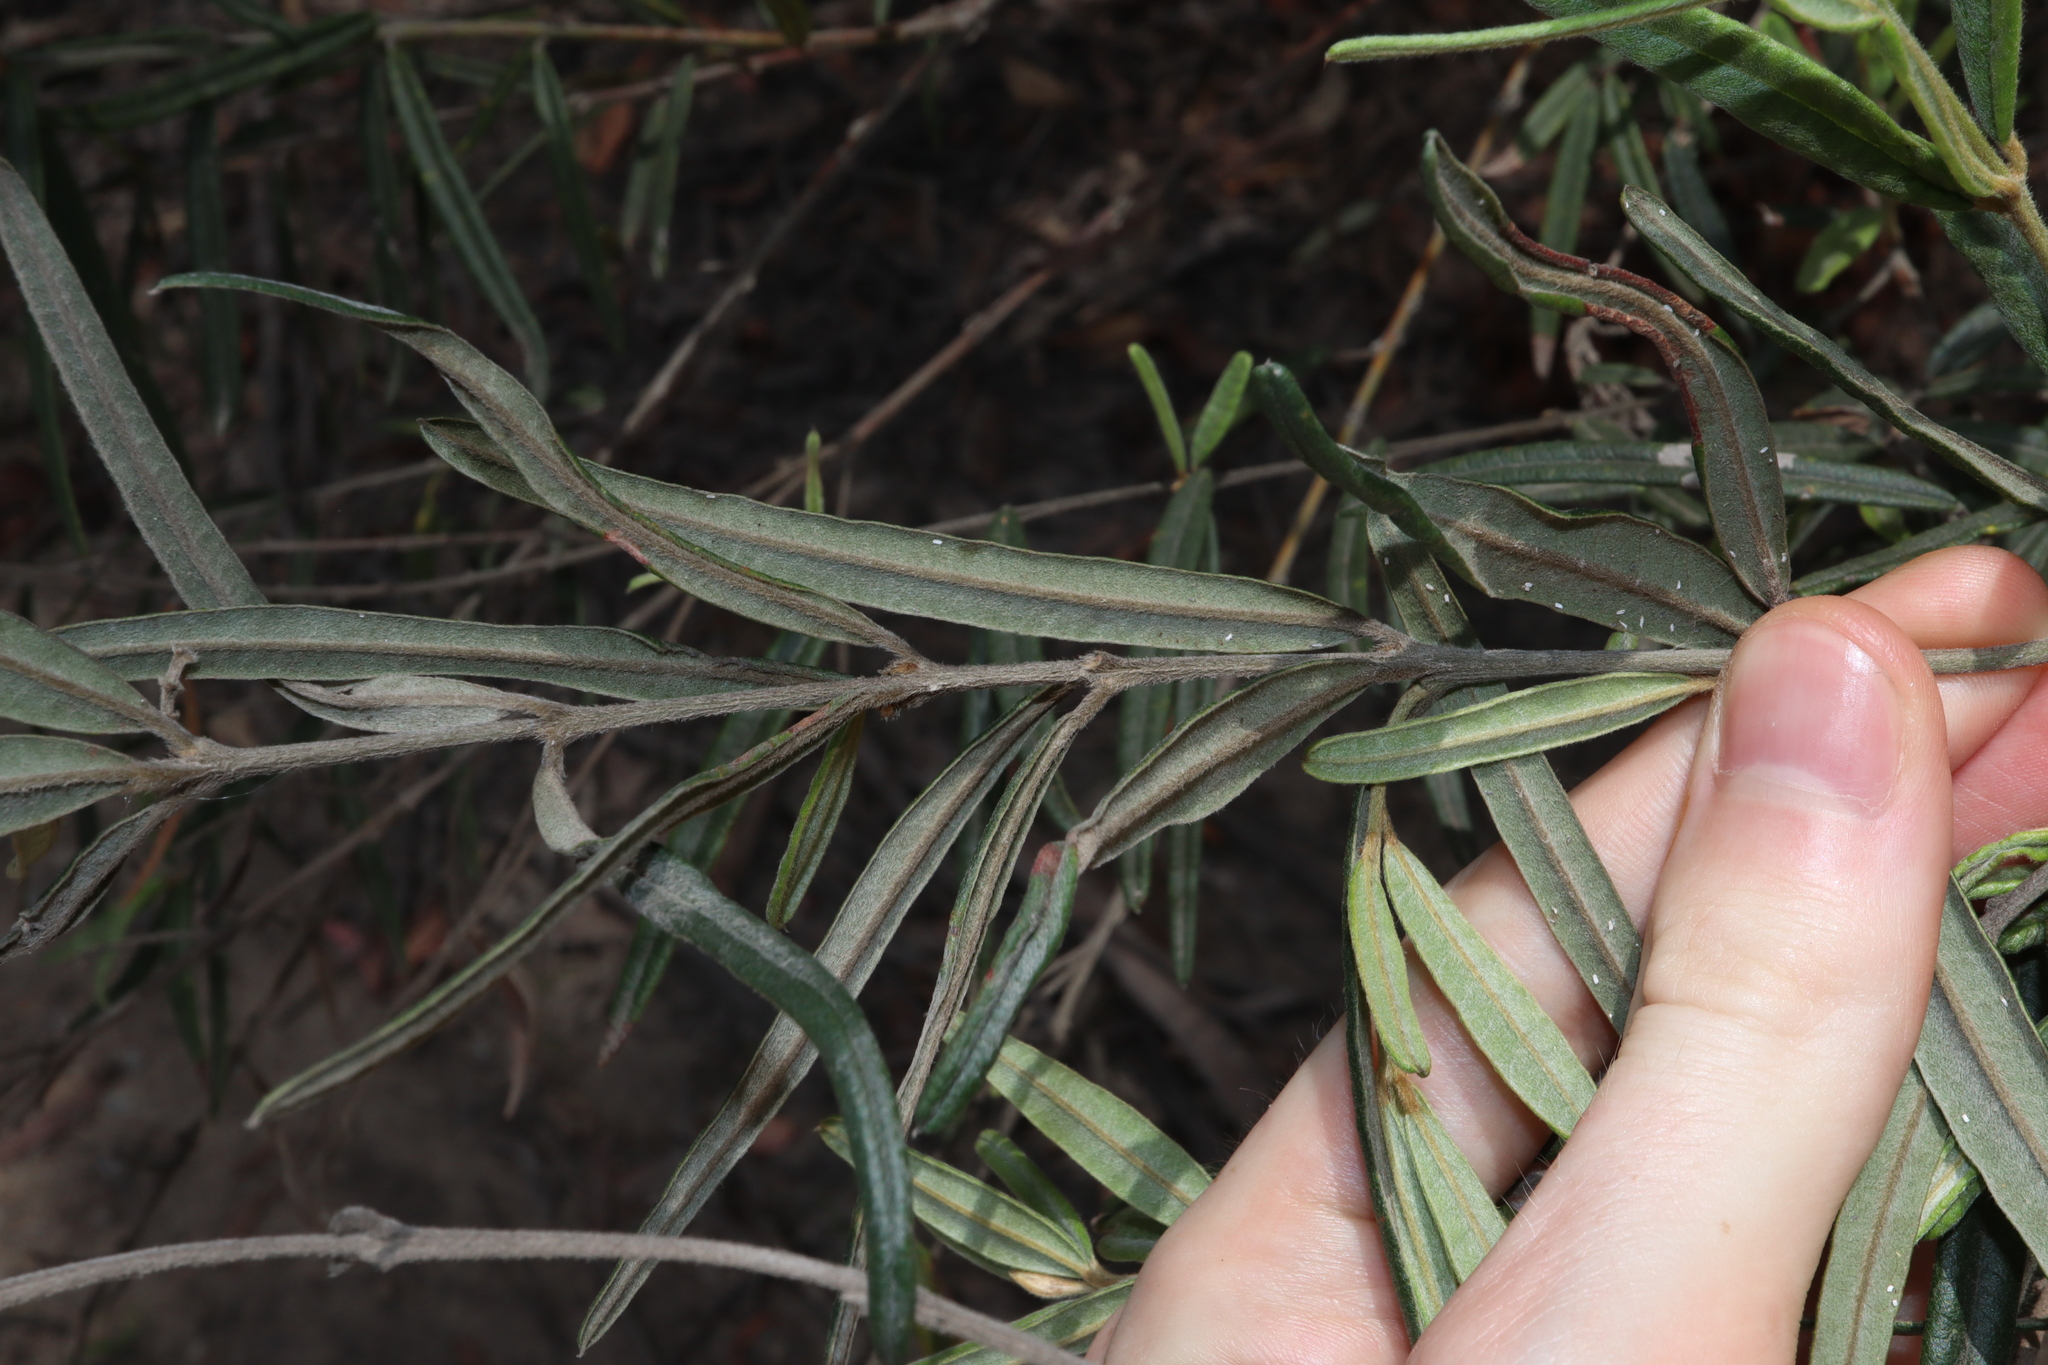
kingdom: Plantae
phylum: Tracheophyta
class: Magnoliopsida
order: Fabales
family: Fabaceae
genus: Oxylobium
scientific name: Oxylobium robustum
